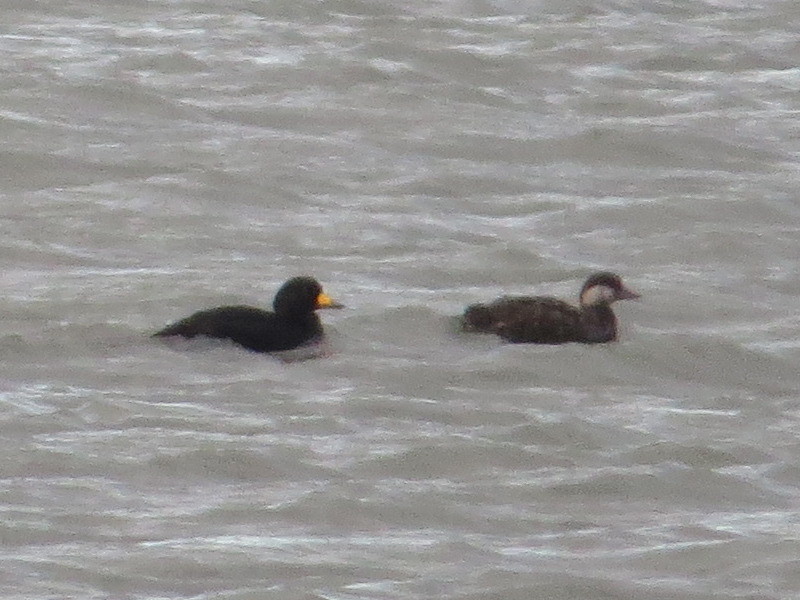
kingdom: Animalia
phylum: Chordata
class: Aves
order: Anseriformes
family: Anatidae
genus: Melanitta
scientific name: Melanitta americana
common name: Black scoter
